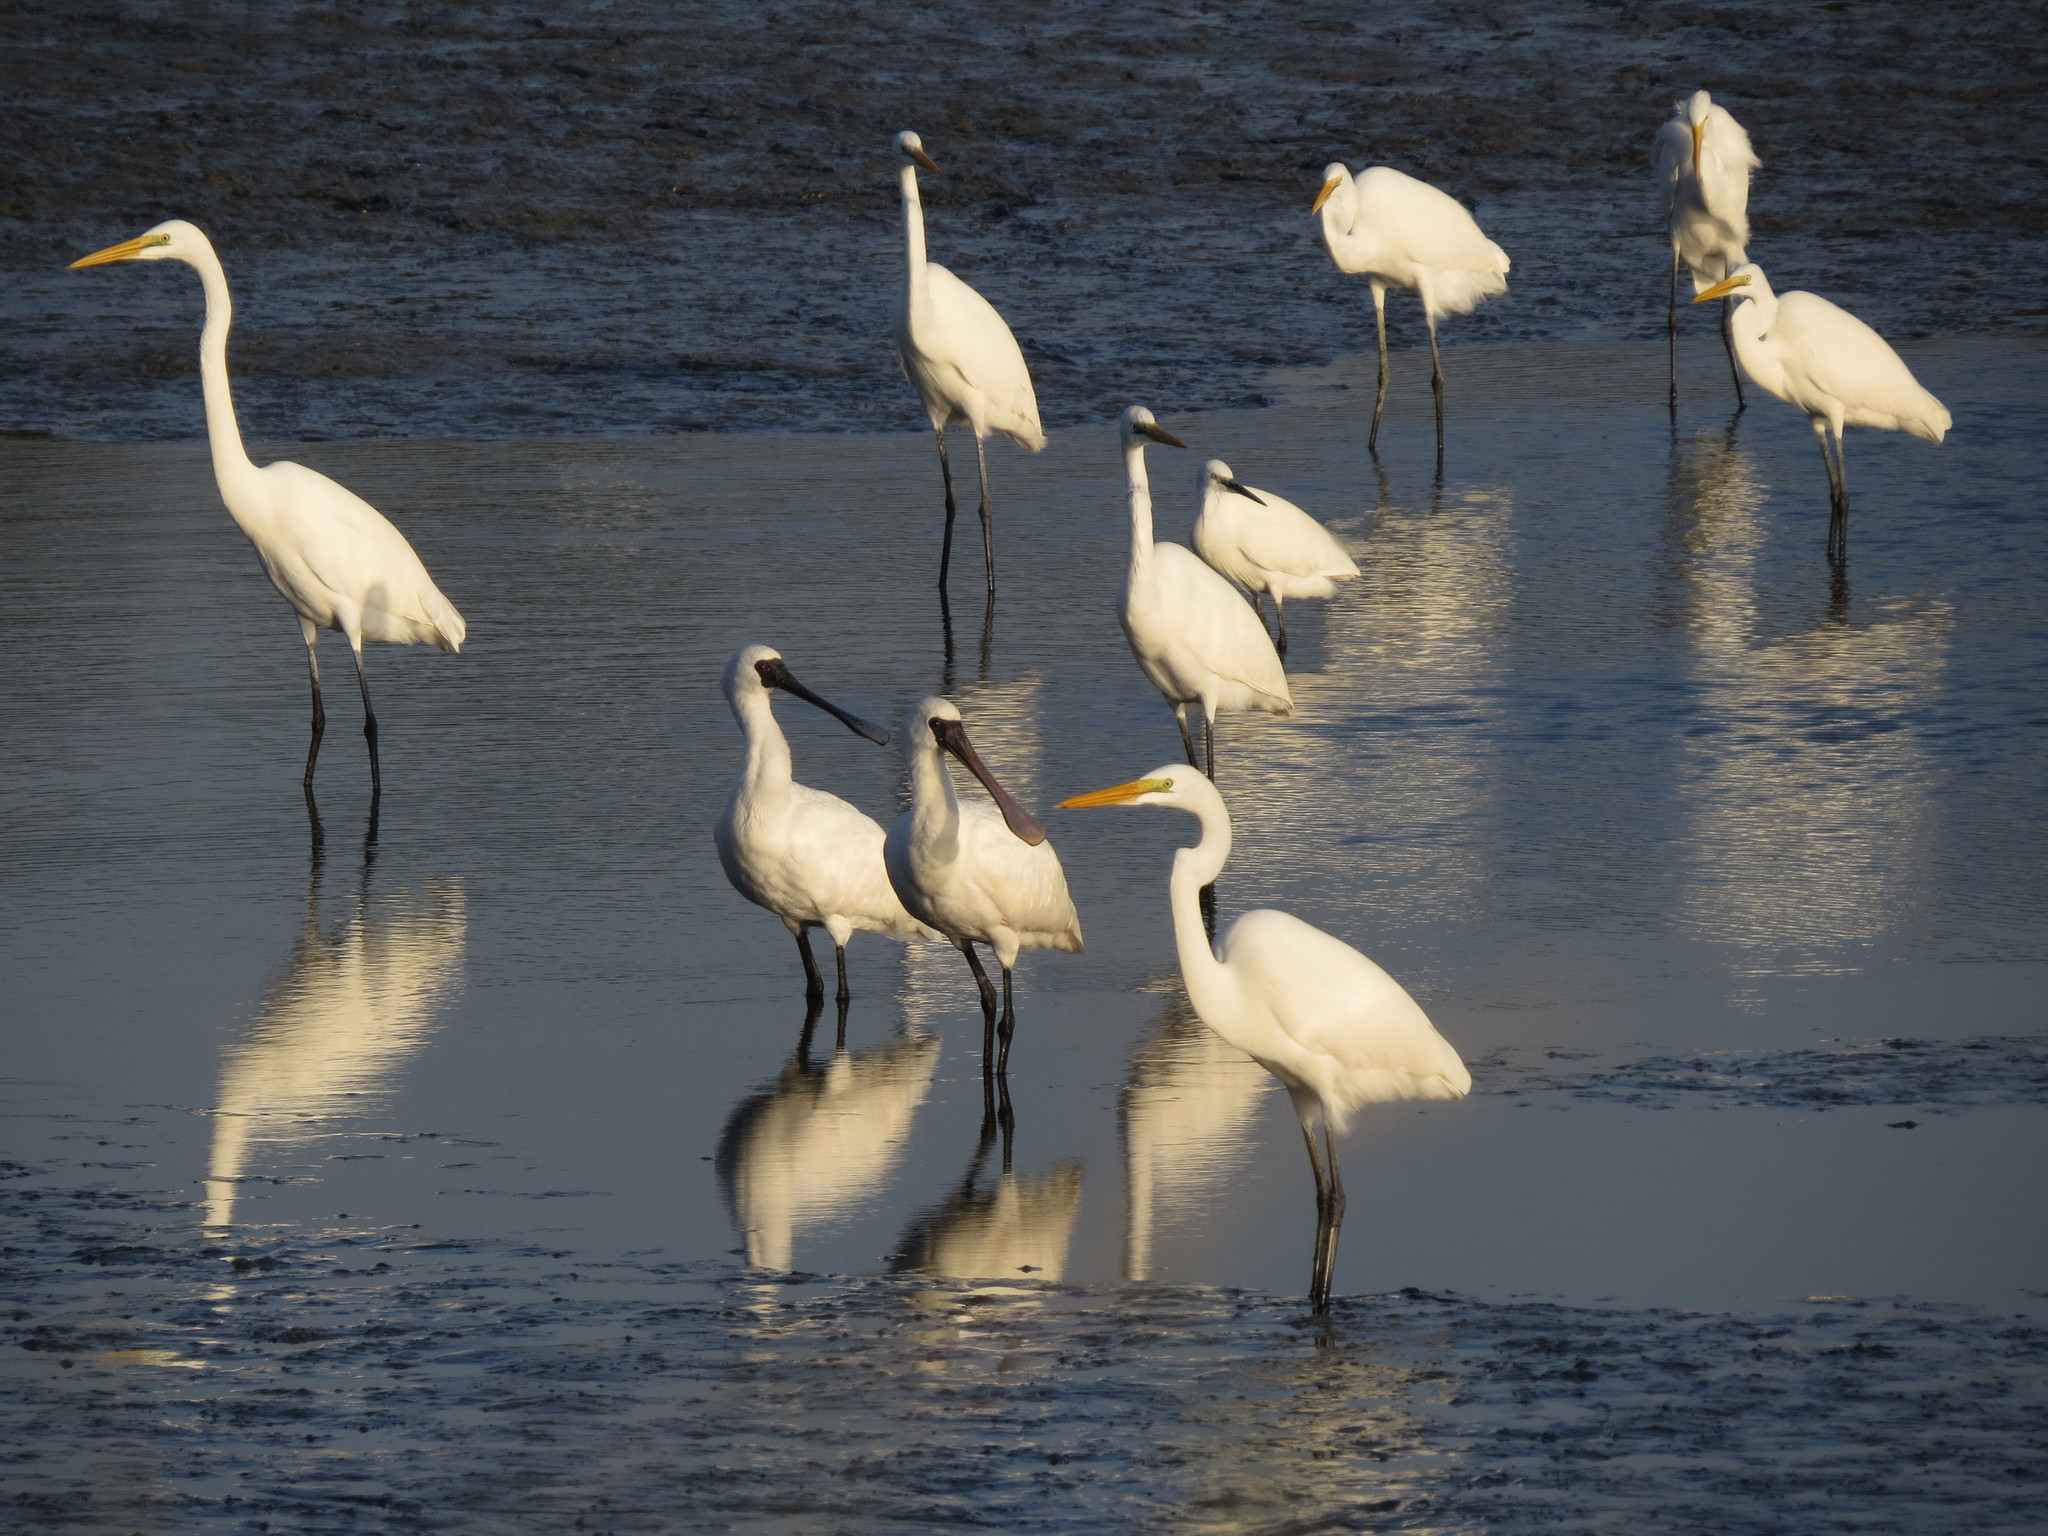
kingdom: Animalia
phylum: Chordata
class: Aves
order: Pelecaniformes
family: Threskiornithidae
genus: Platalea
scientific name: Platalea minor
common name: Black-faced spoonbill
